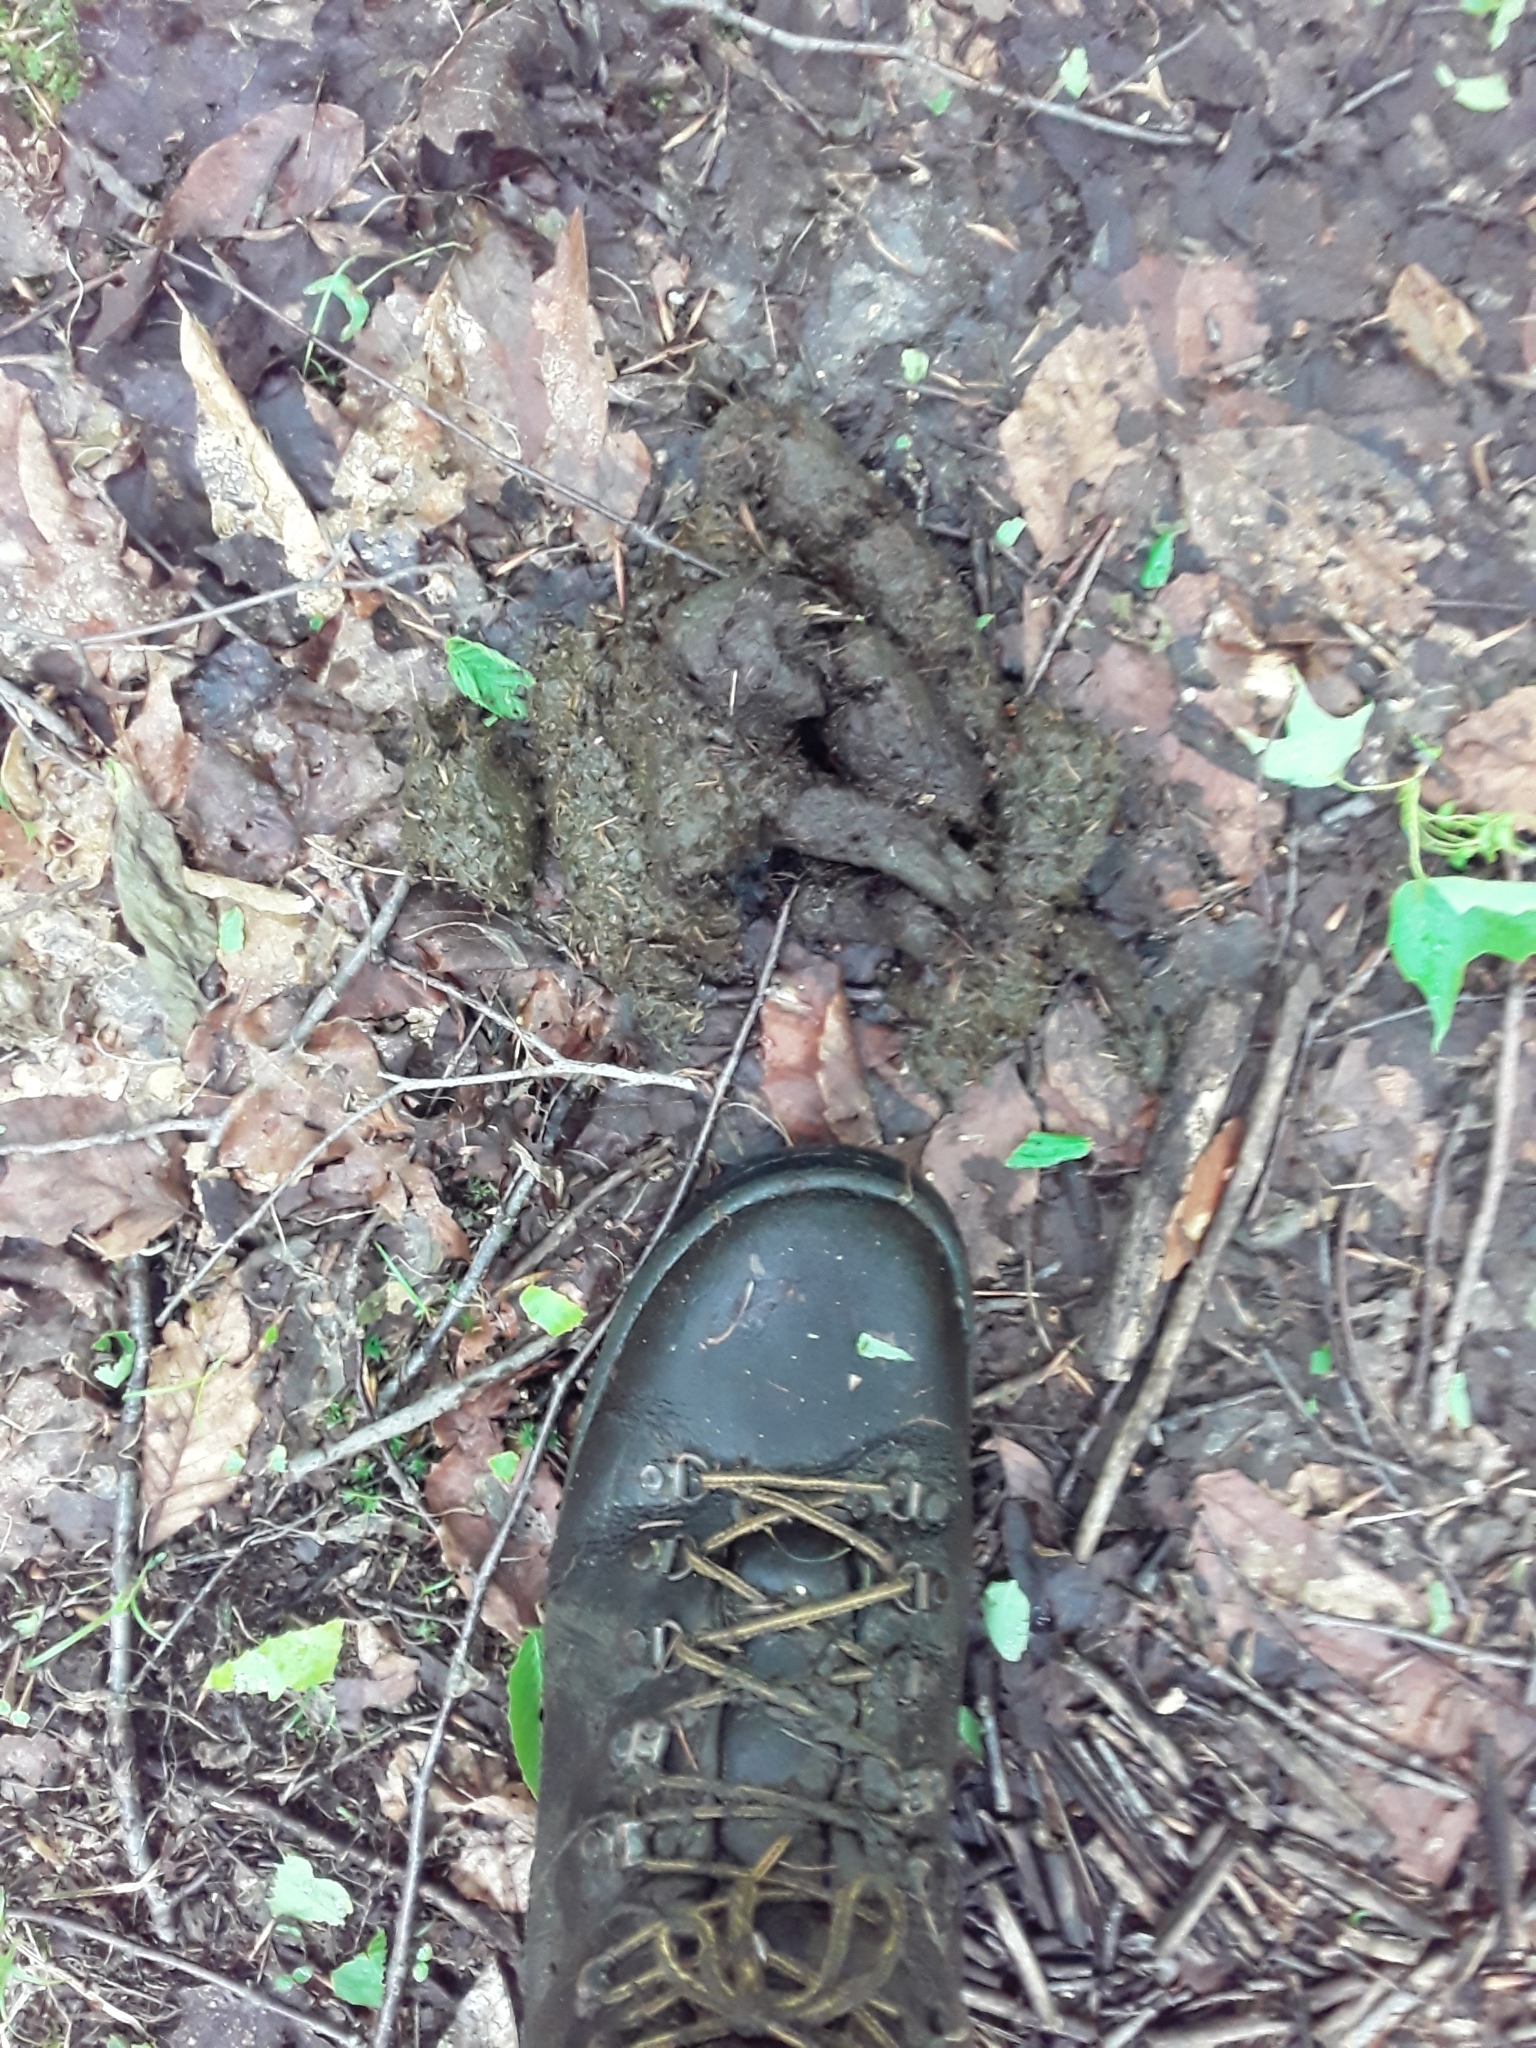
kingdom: Animalia
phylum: Chordata
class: Mammalia
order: Artiodactyla
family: Cervidae
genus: Alces
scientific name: Alces alces
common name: Moose
